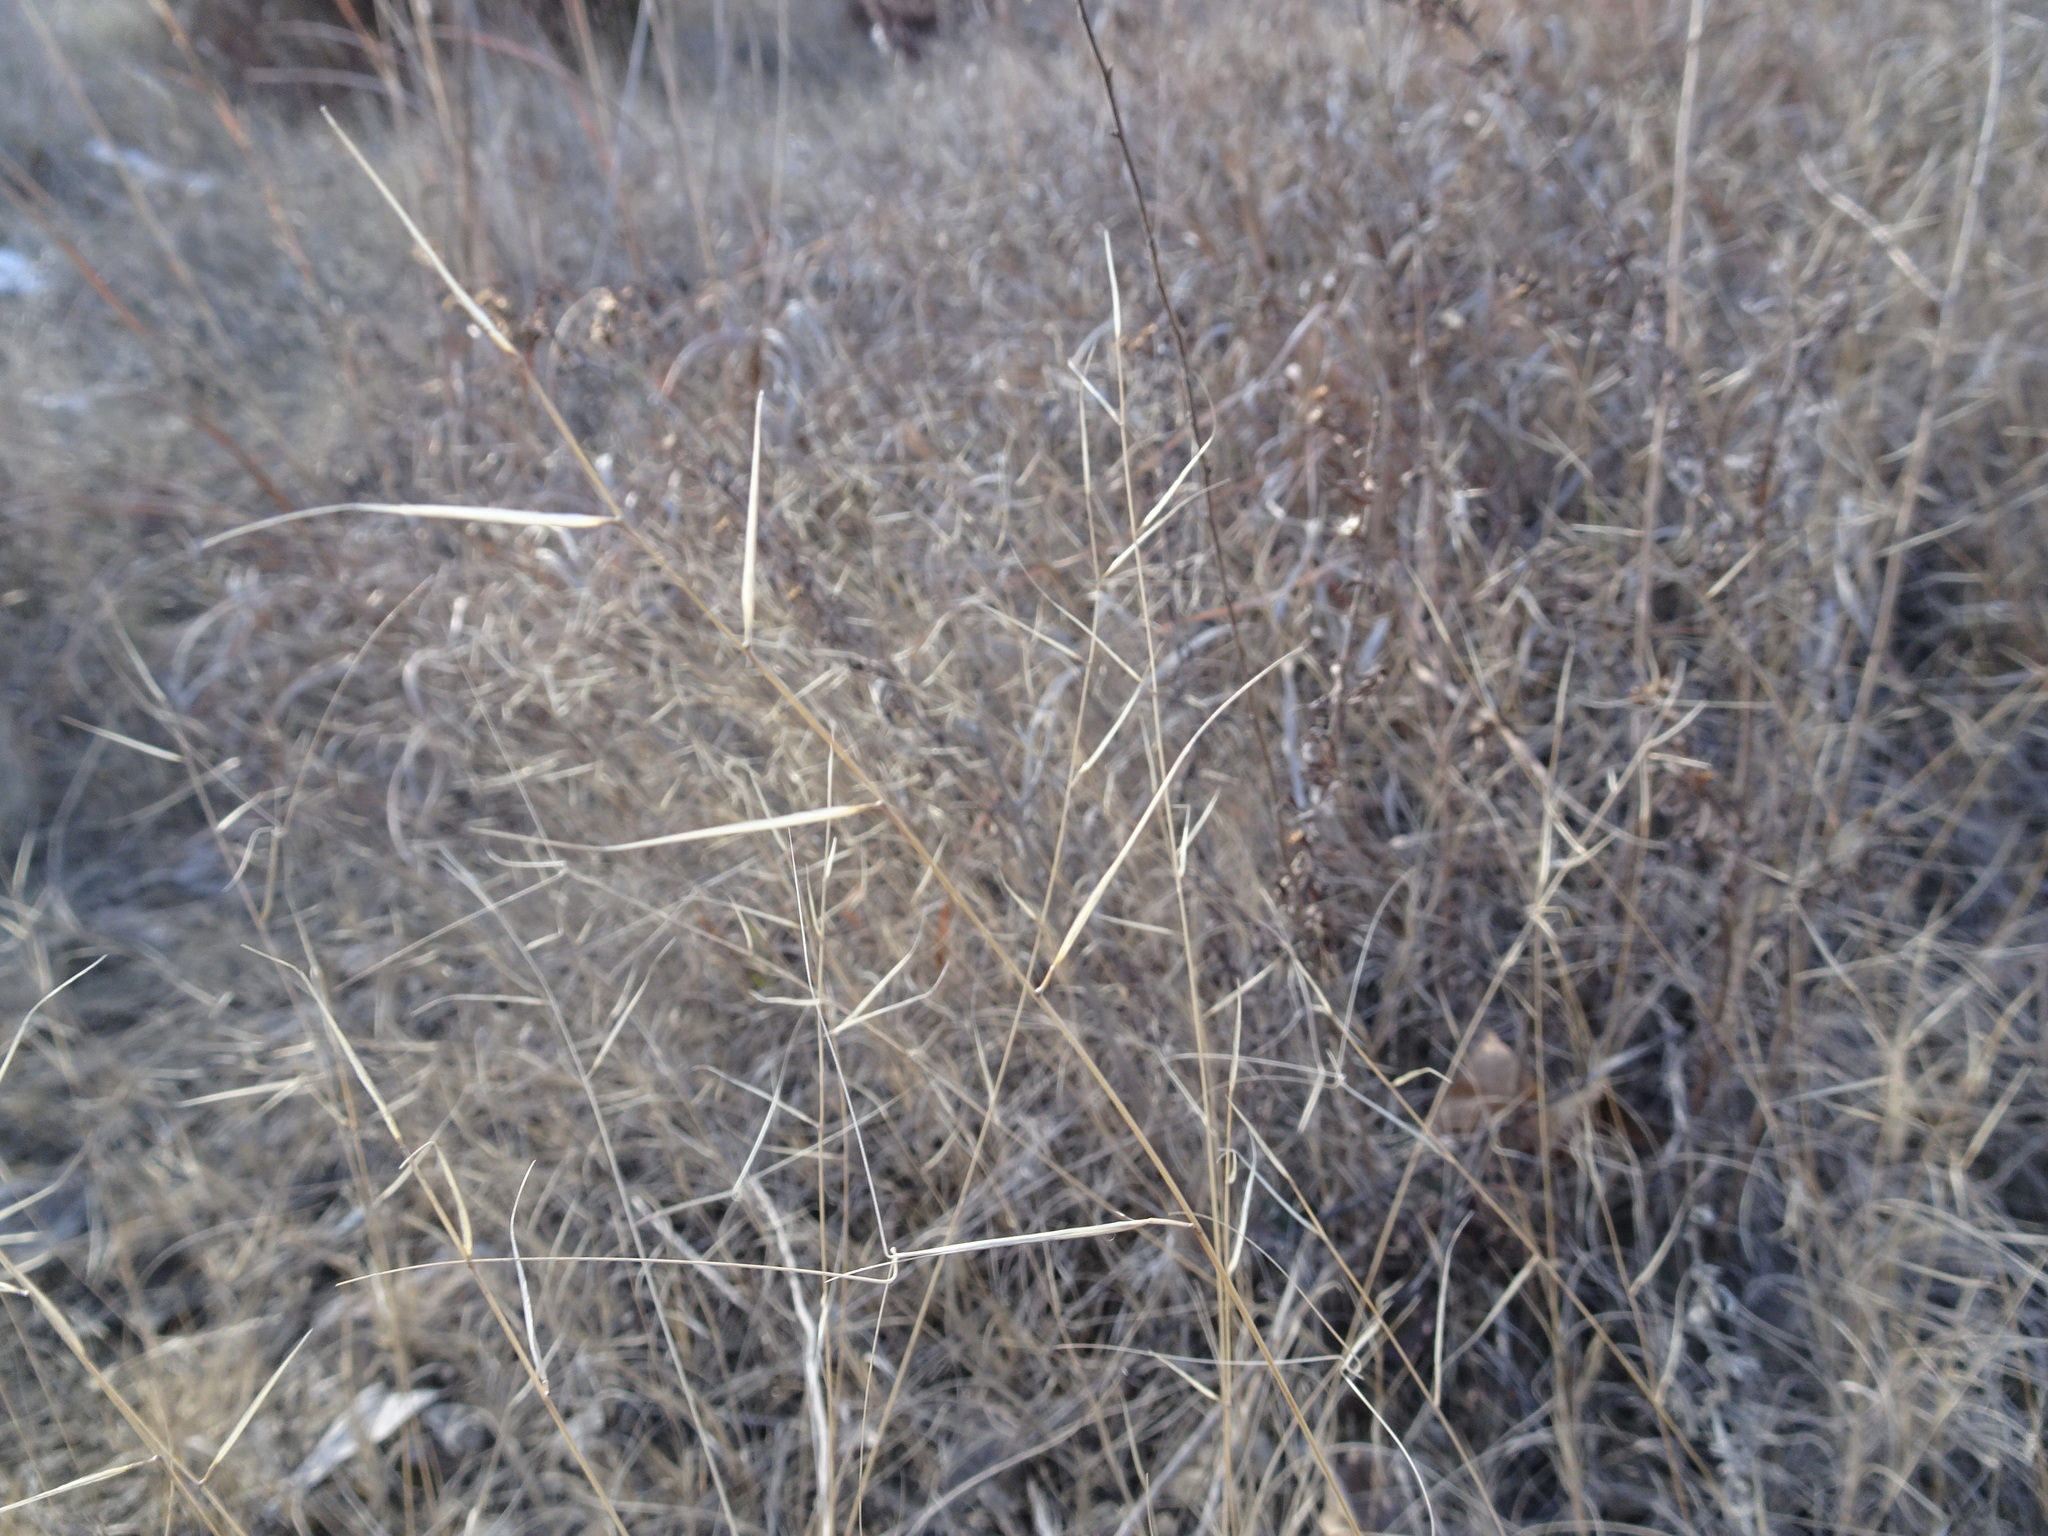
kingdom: Plantae
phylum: Tracheophyta
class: Liliopsida
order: Poales
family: Poaceae
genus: Aristida
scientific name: Aristida oligantha
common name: Few-flowered aristida
